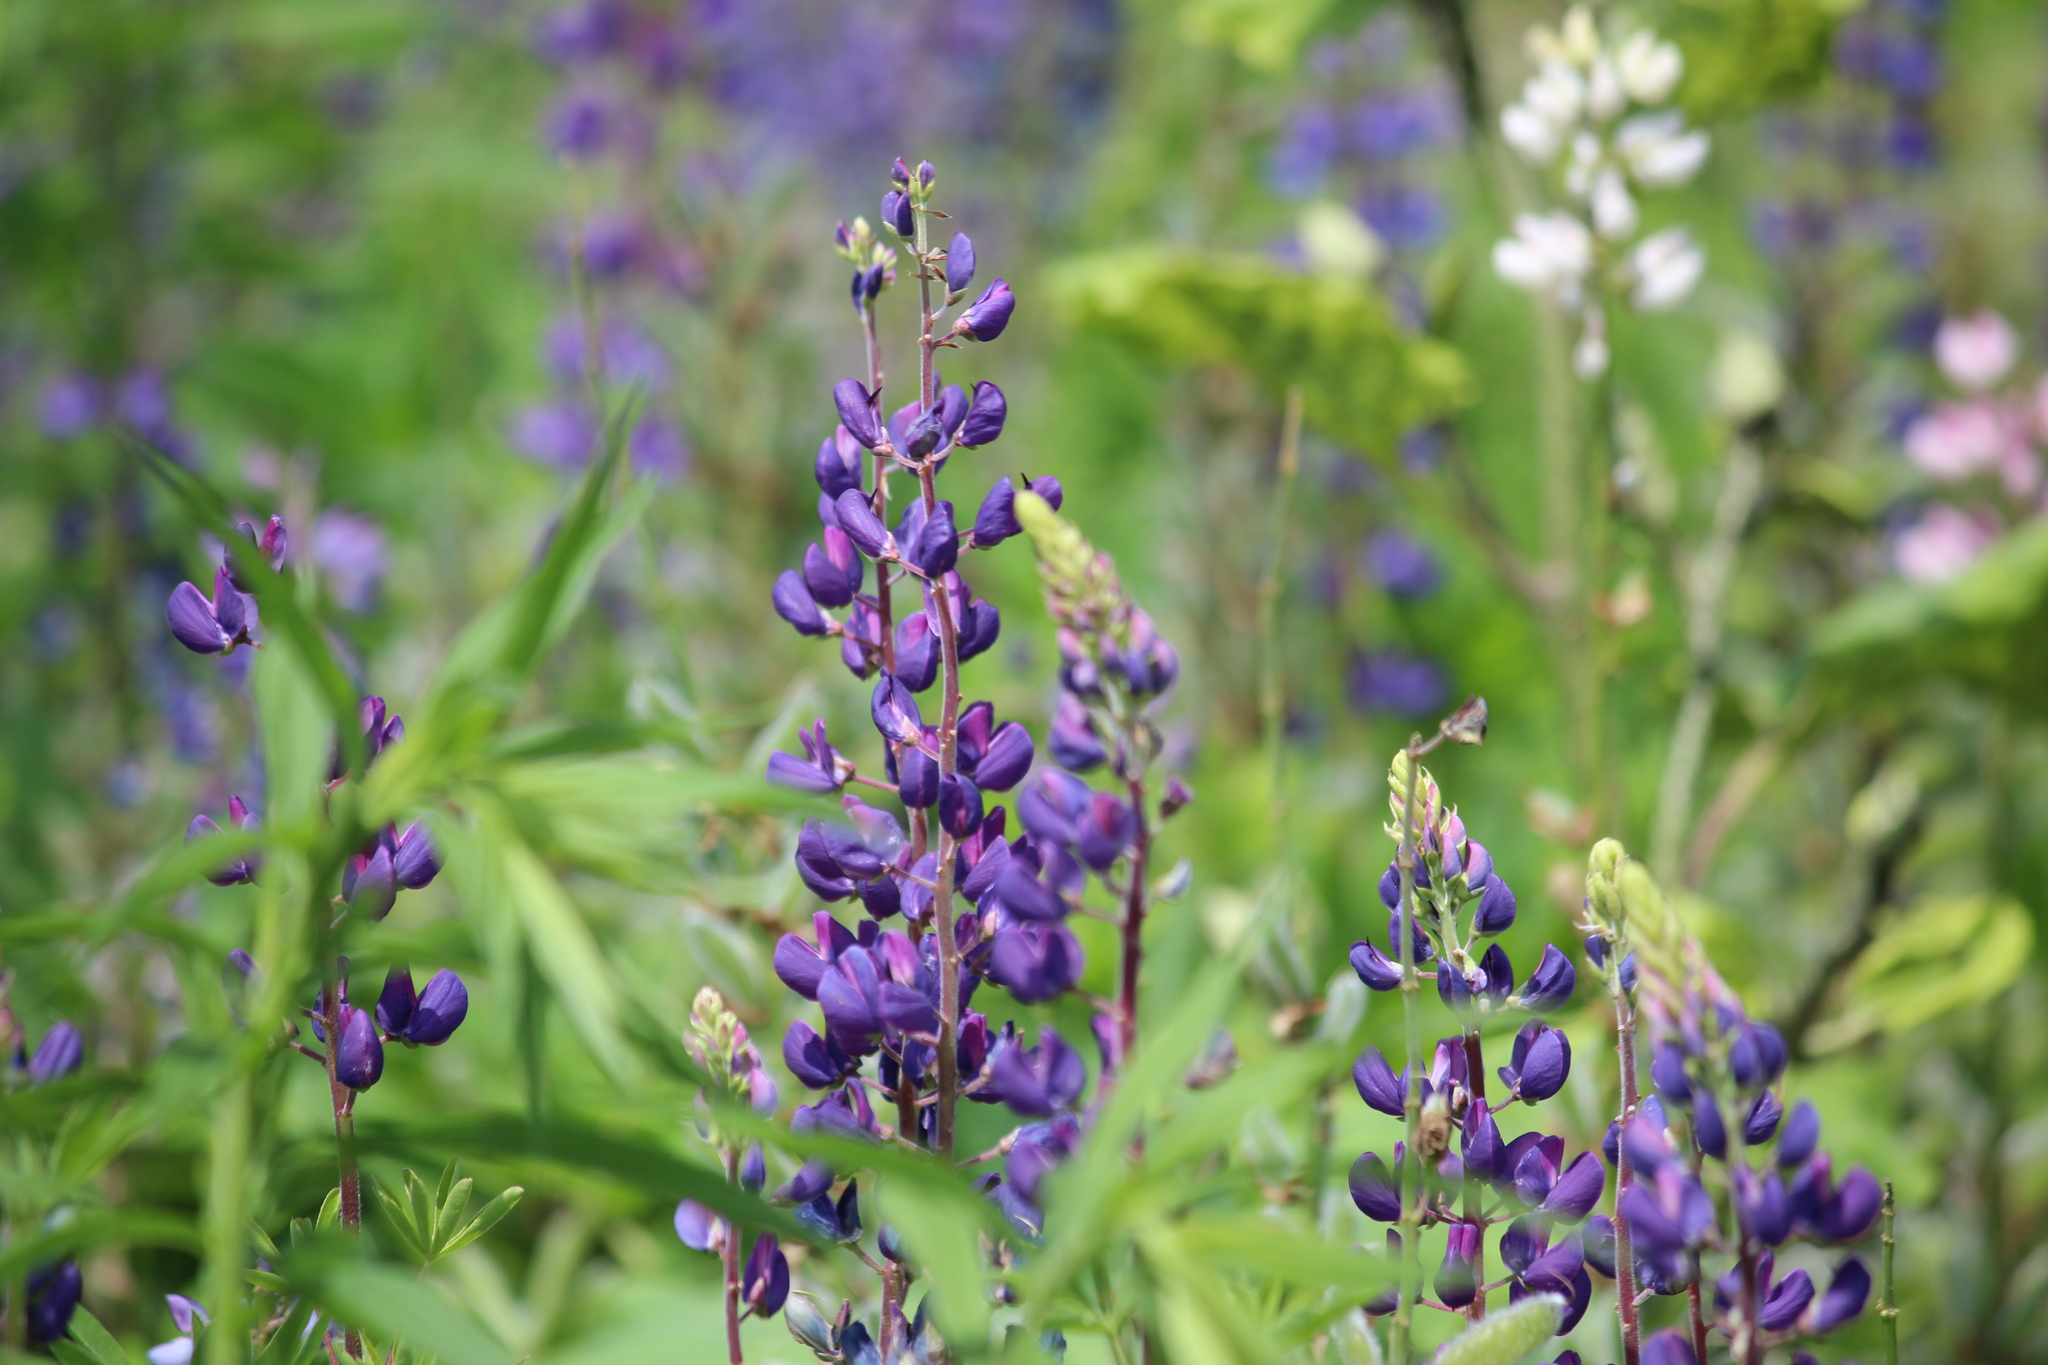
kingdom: Plantae
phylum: Tracheophyta
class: Magnoliopsida
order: Fabales
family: Fabaceae
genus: Lupinus
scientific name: Lupinus polyphyllus
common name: Garden lupin
